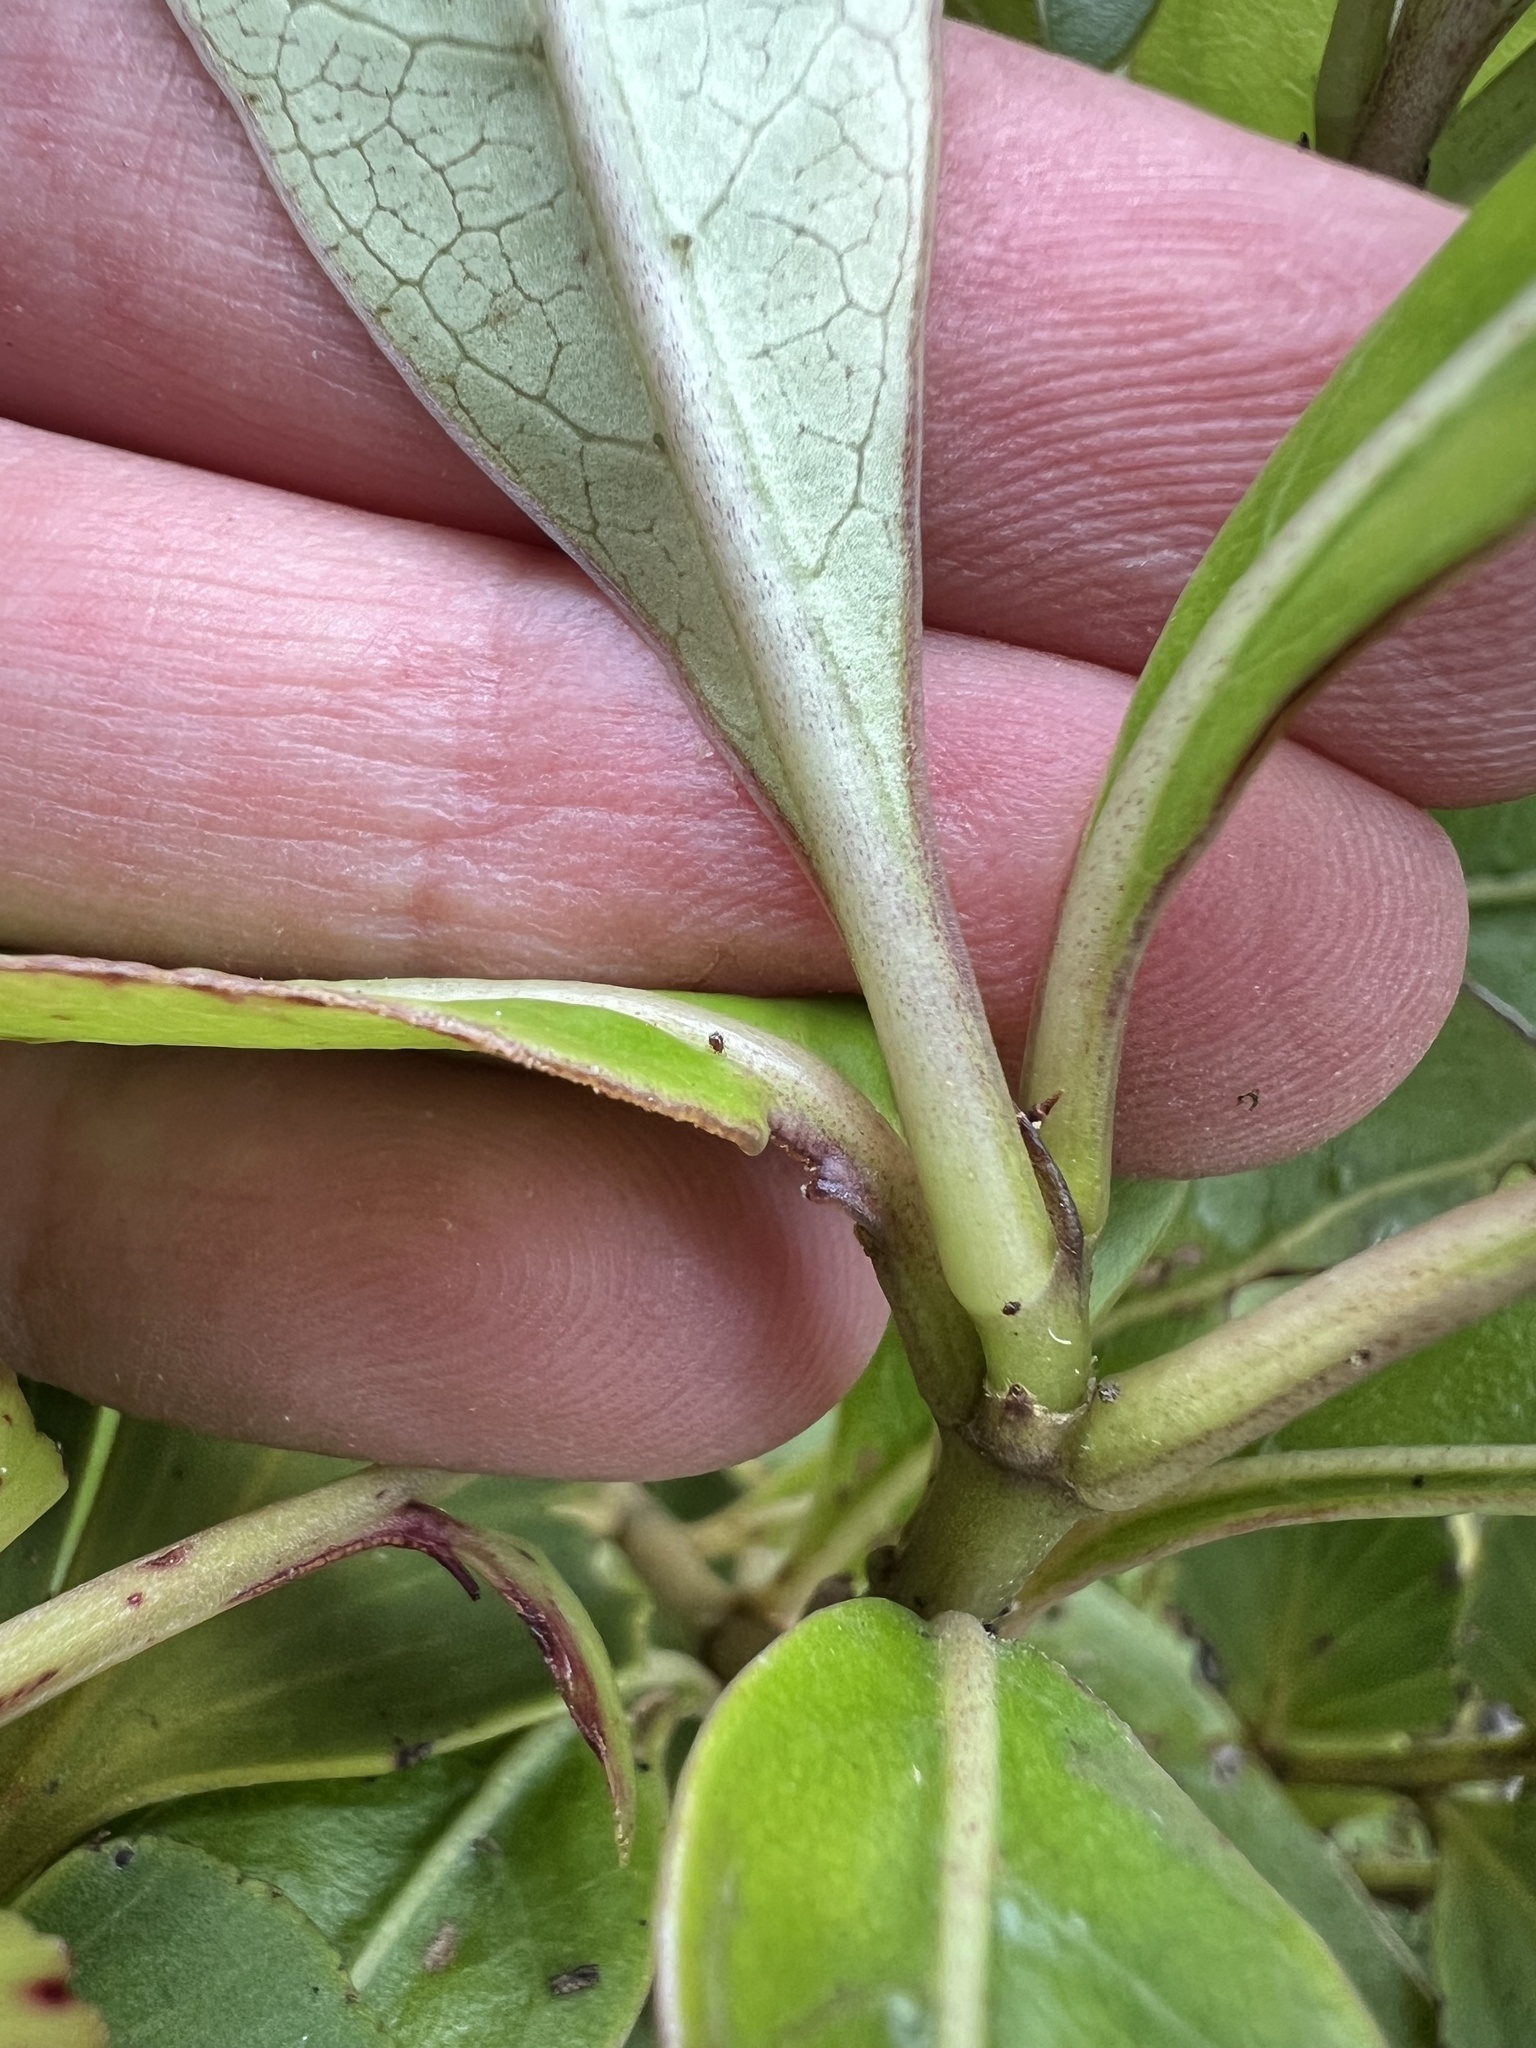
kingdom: Plantae
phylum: Tracheophyta
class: Magnoliopsida
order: Gentianales
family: Rubiaceae
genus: Coprosma
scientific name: Coprosma dodonaeifolia
